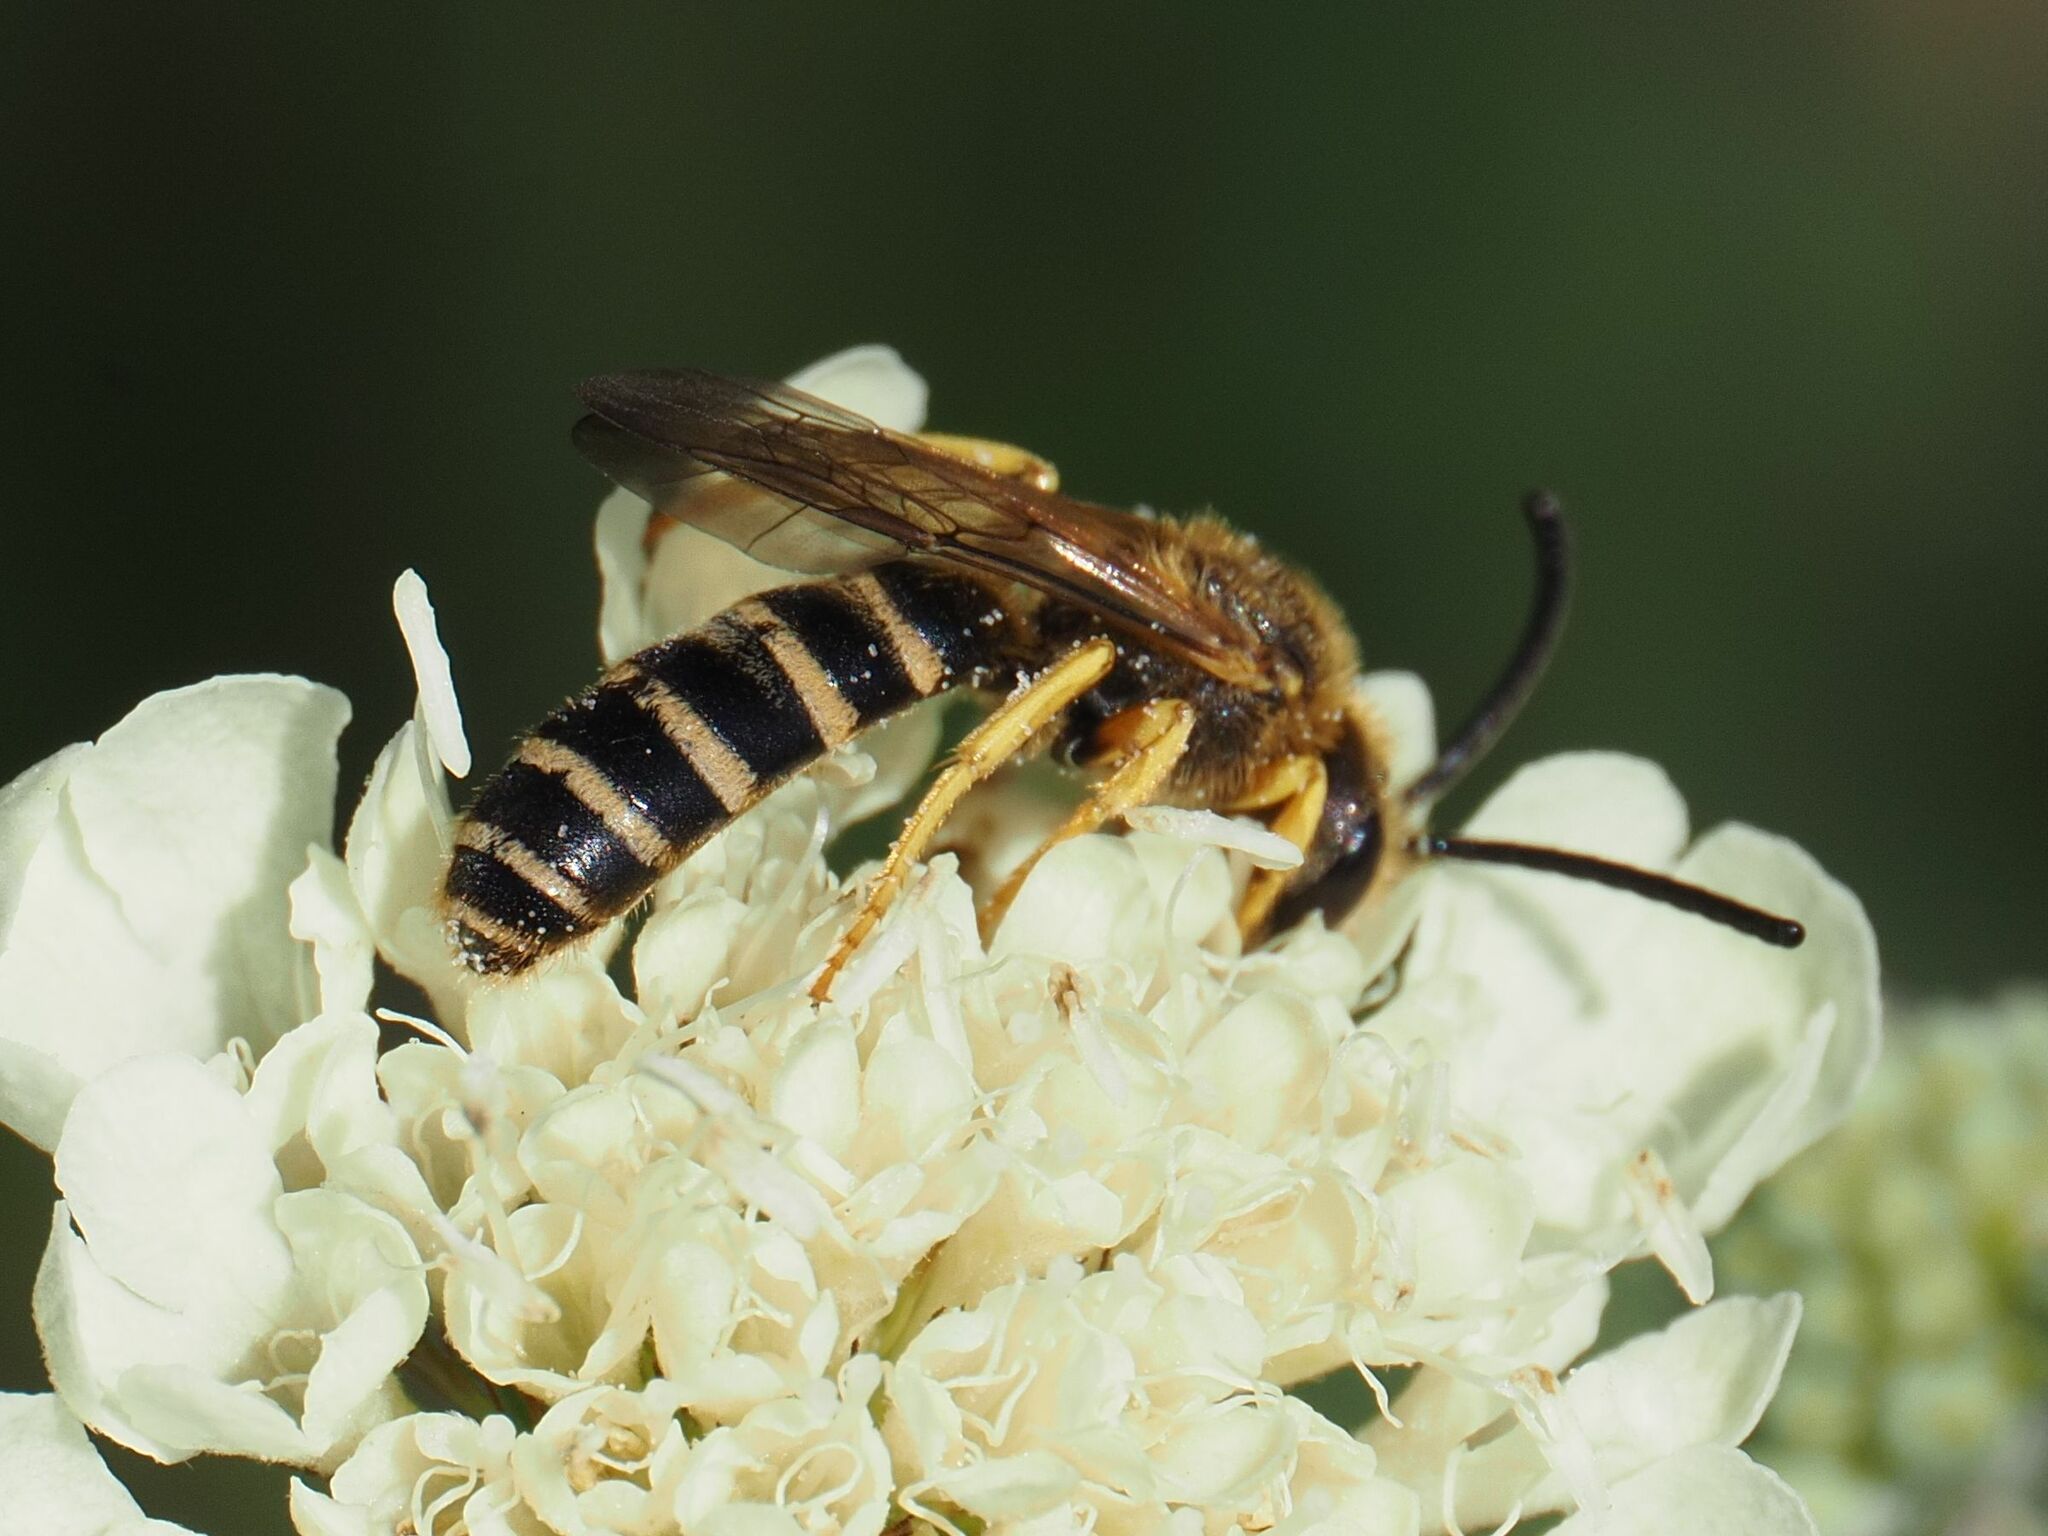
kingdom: Animalia
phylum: Arthropoda
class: Insecta
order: Hymenoptera
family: Halictidae
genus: Halictus
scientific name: Halictus scabiosae
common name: Great banded furrow bee
